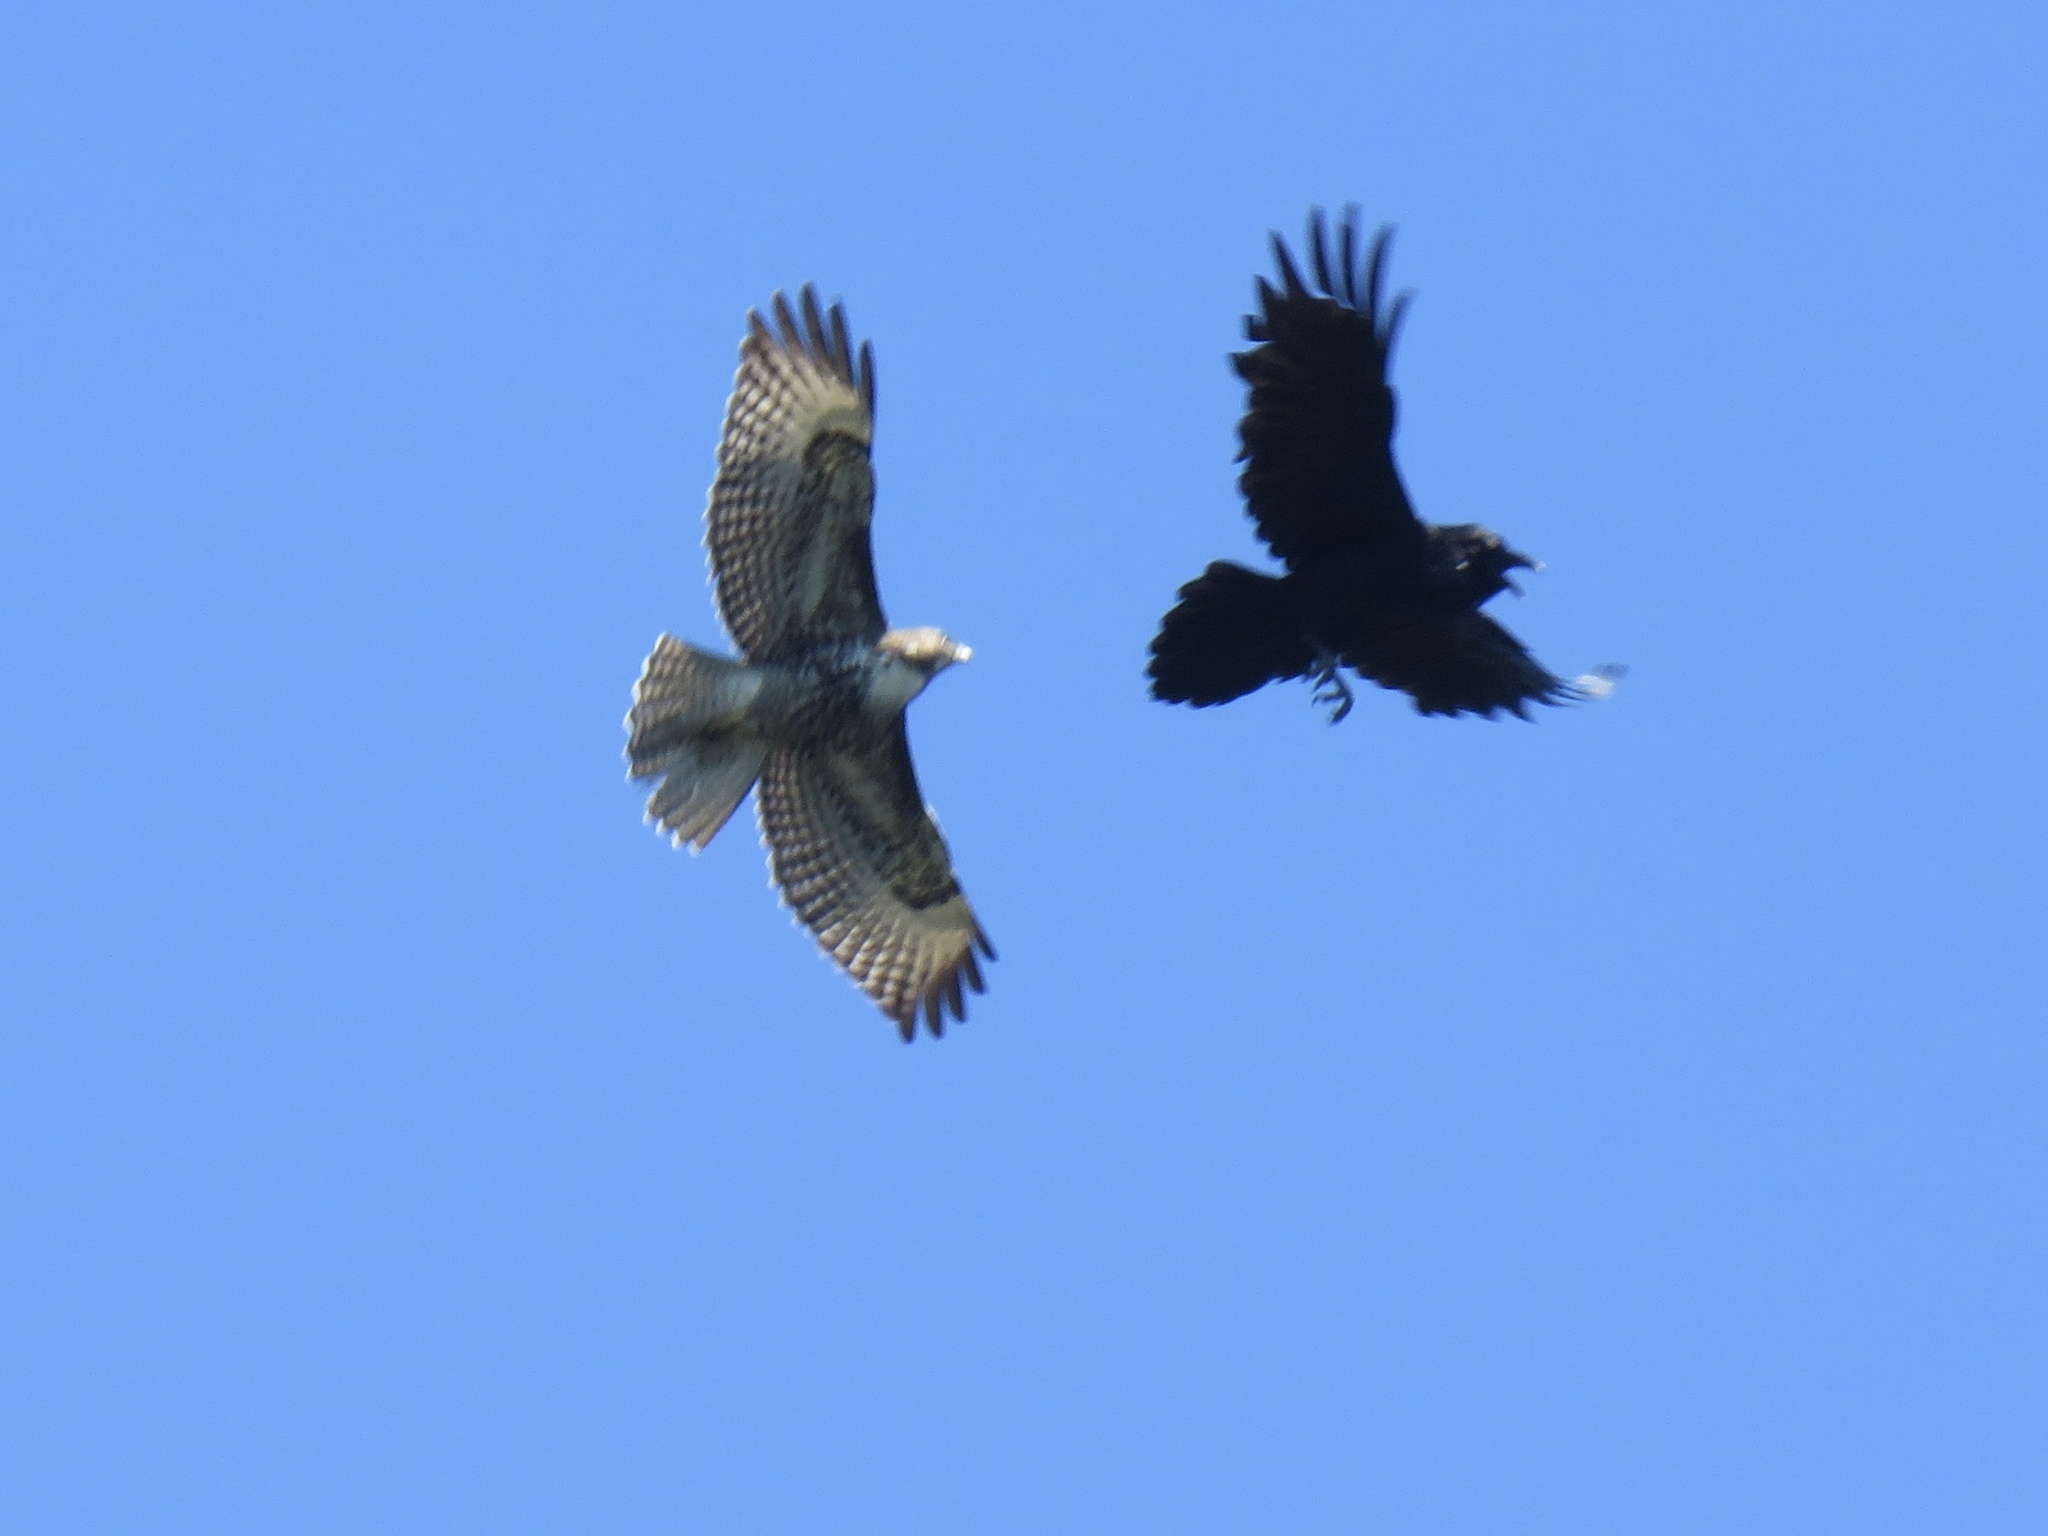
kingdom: Animalia
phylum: Chordata
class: Aves
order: Accipitriformes
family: Accipitridae
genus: Buteo
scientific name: Buteo jamaicensis
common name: Red-tailed hawk
